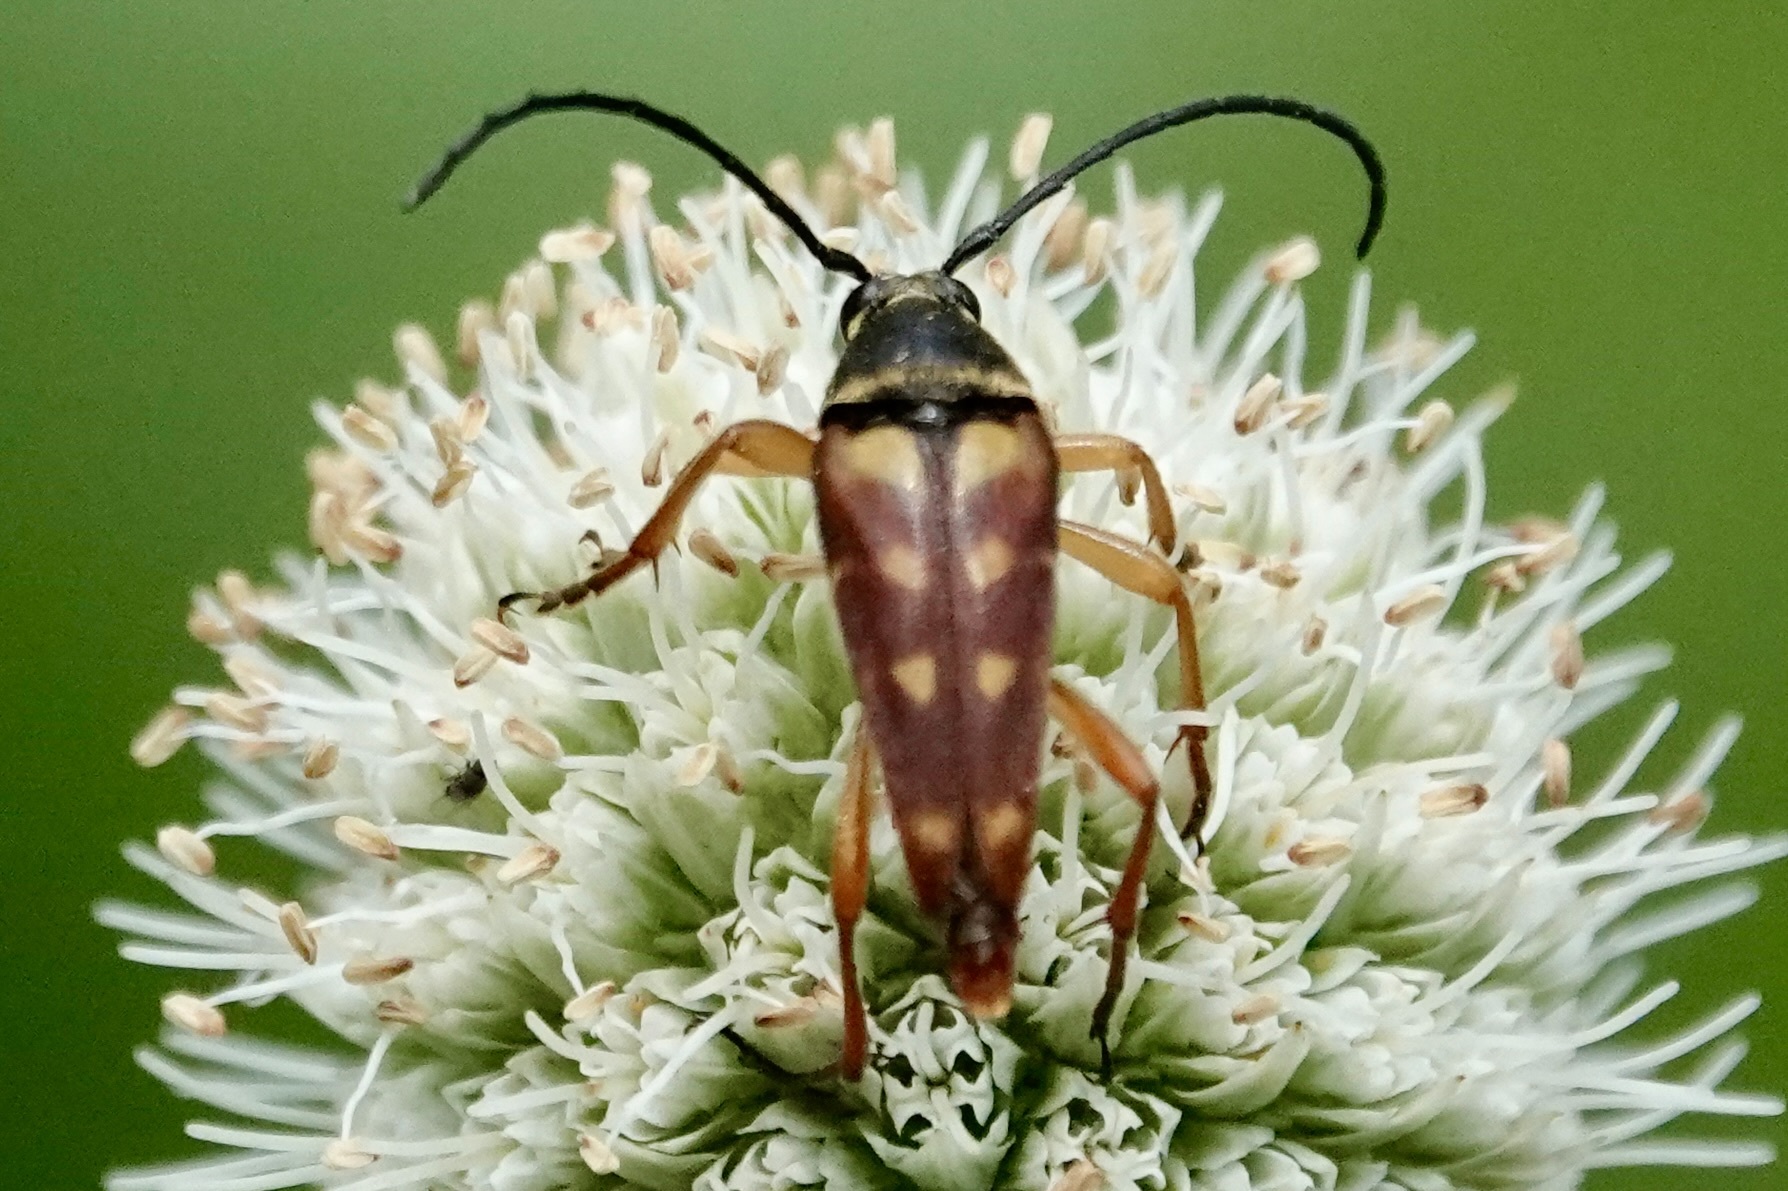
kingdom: Animalia
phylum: Arthropoda
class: Insecta
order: Coleoptera
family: Cerambycidae
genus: Typocerus
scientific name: Typocerus velutinus
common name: Banded longhorn beetle
